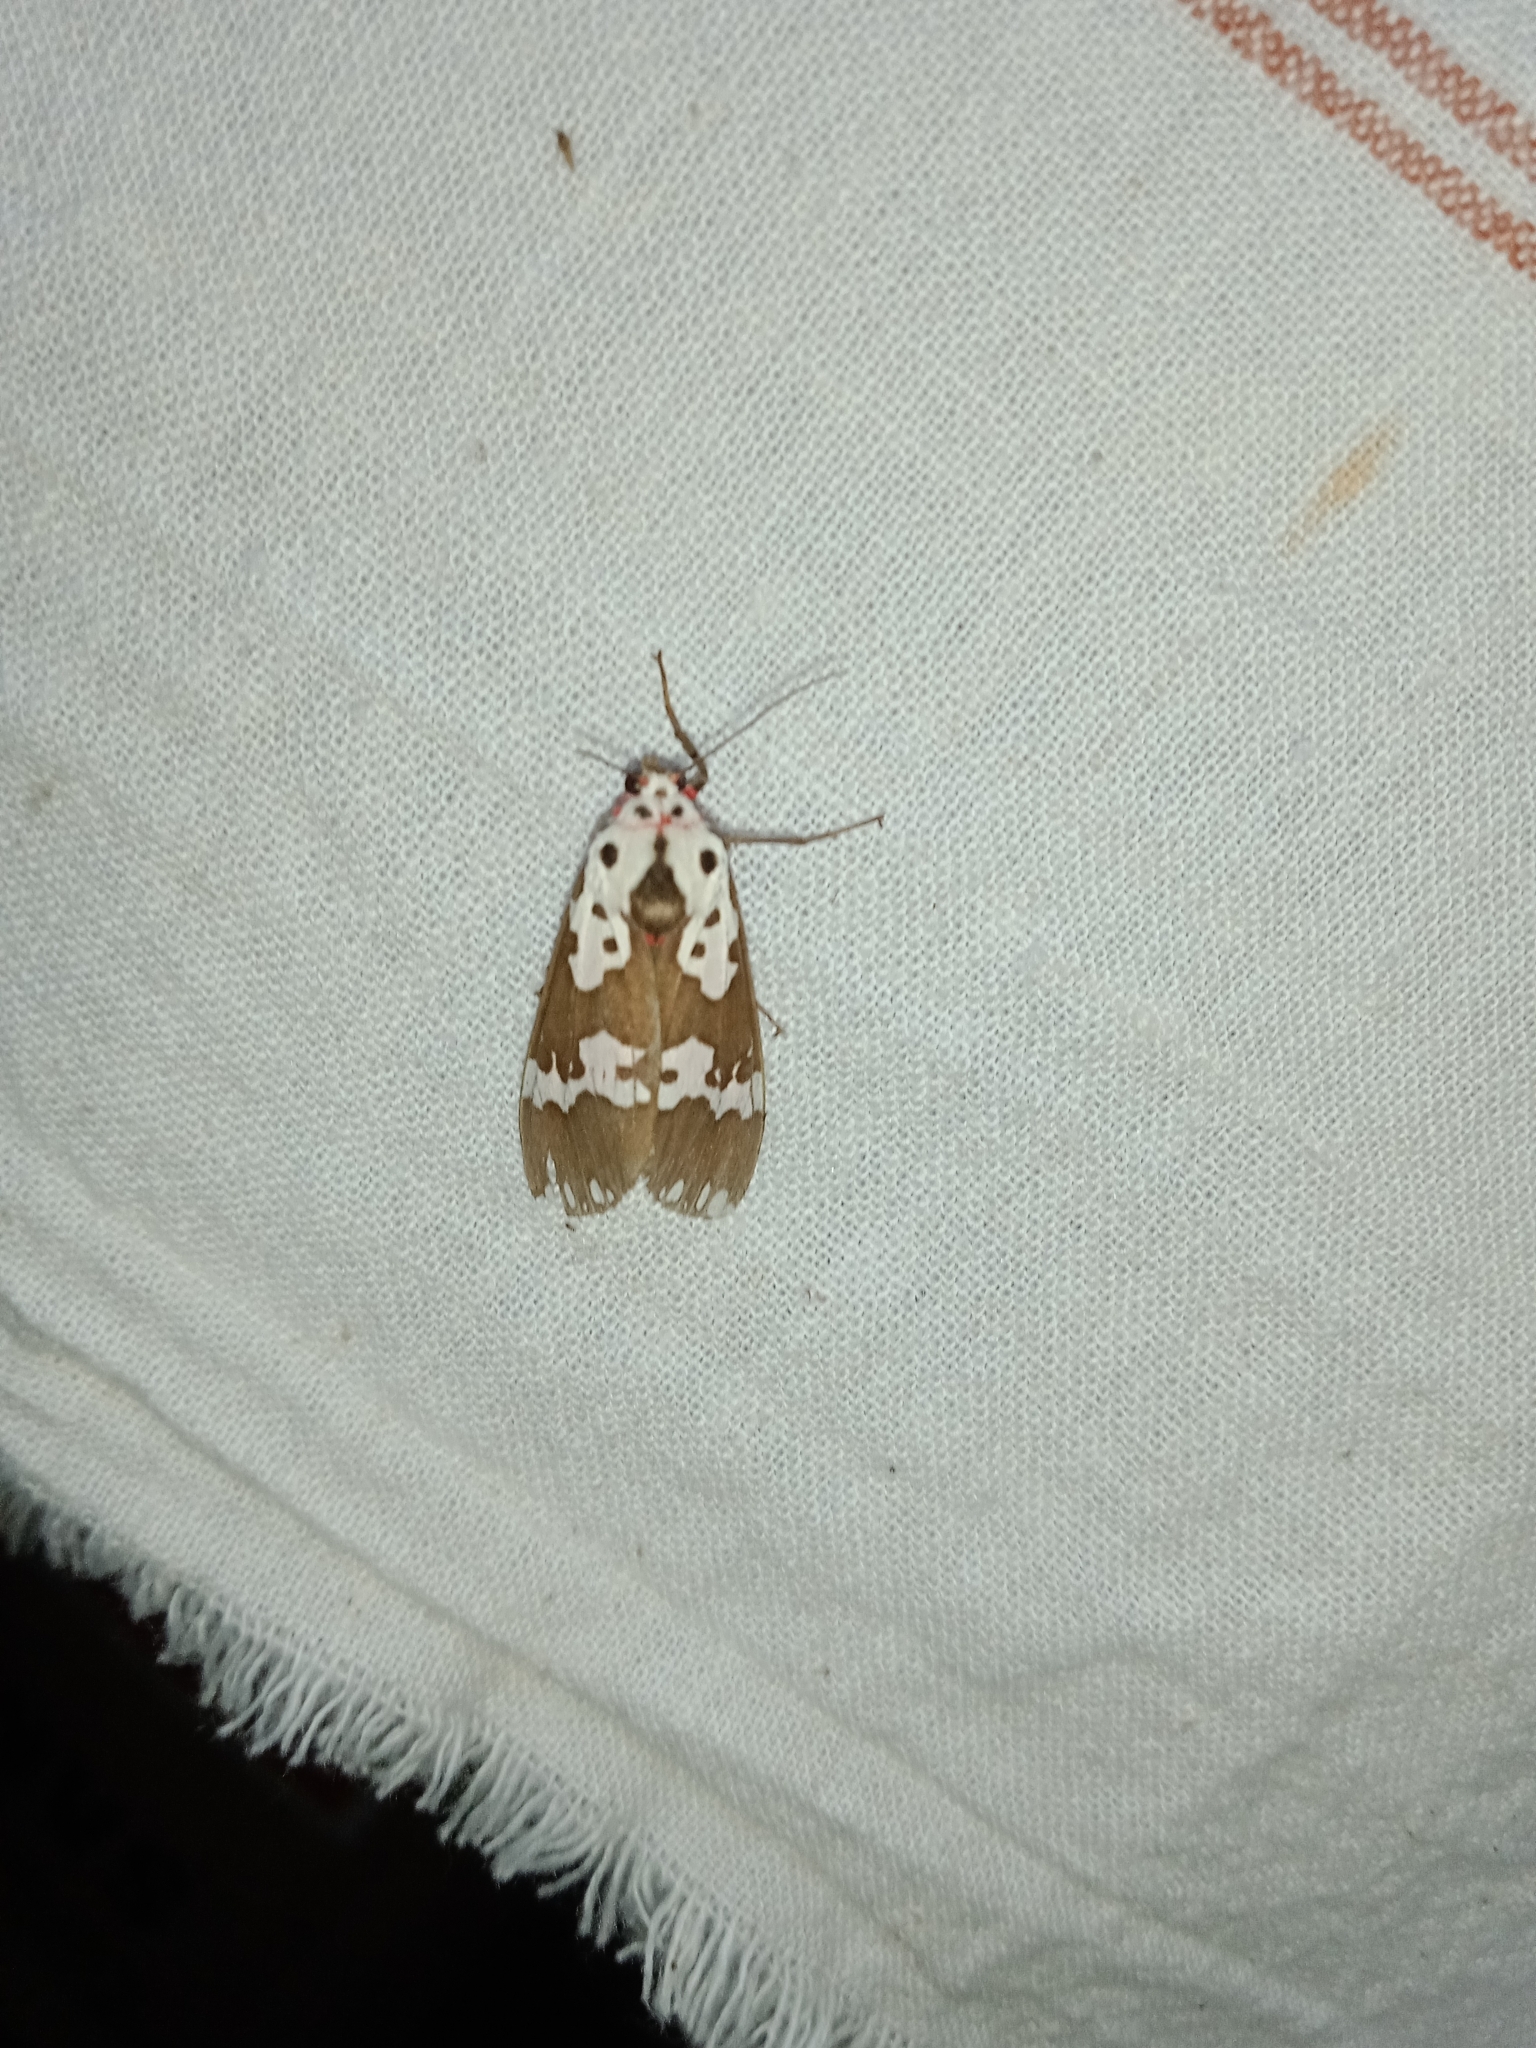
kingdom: Animalia
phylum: Arthropoda
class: Insecta
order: Lepidoptera
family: Erebidae
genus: Pericallia
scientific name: Pericallia
